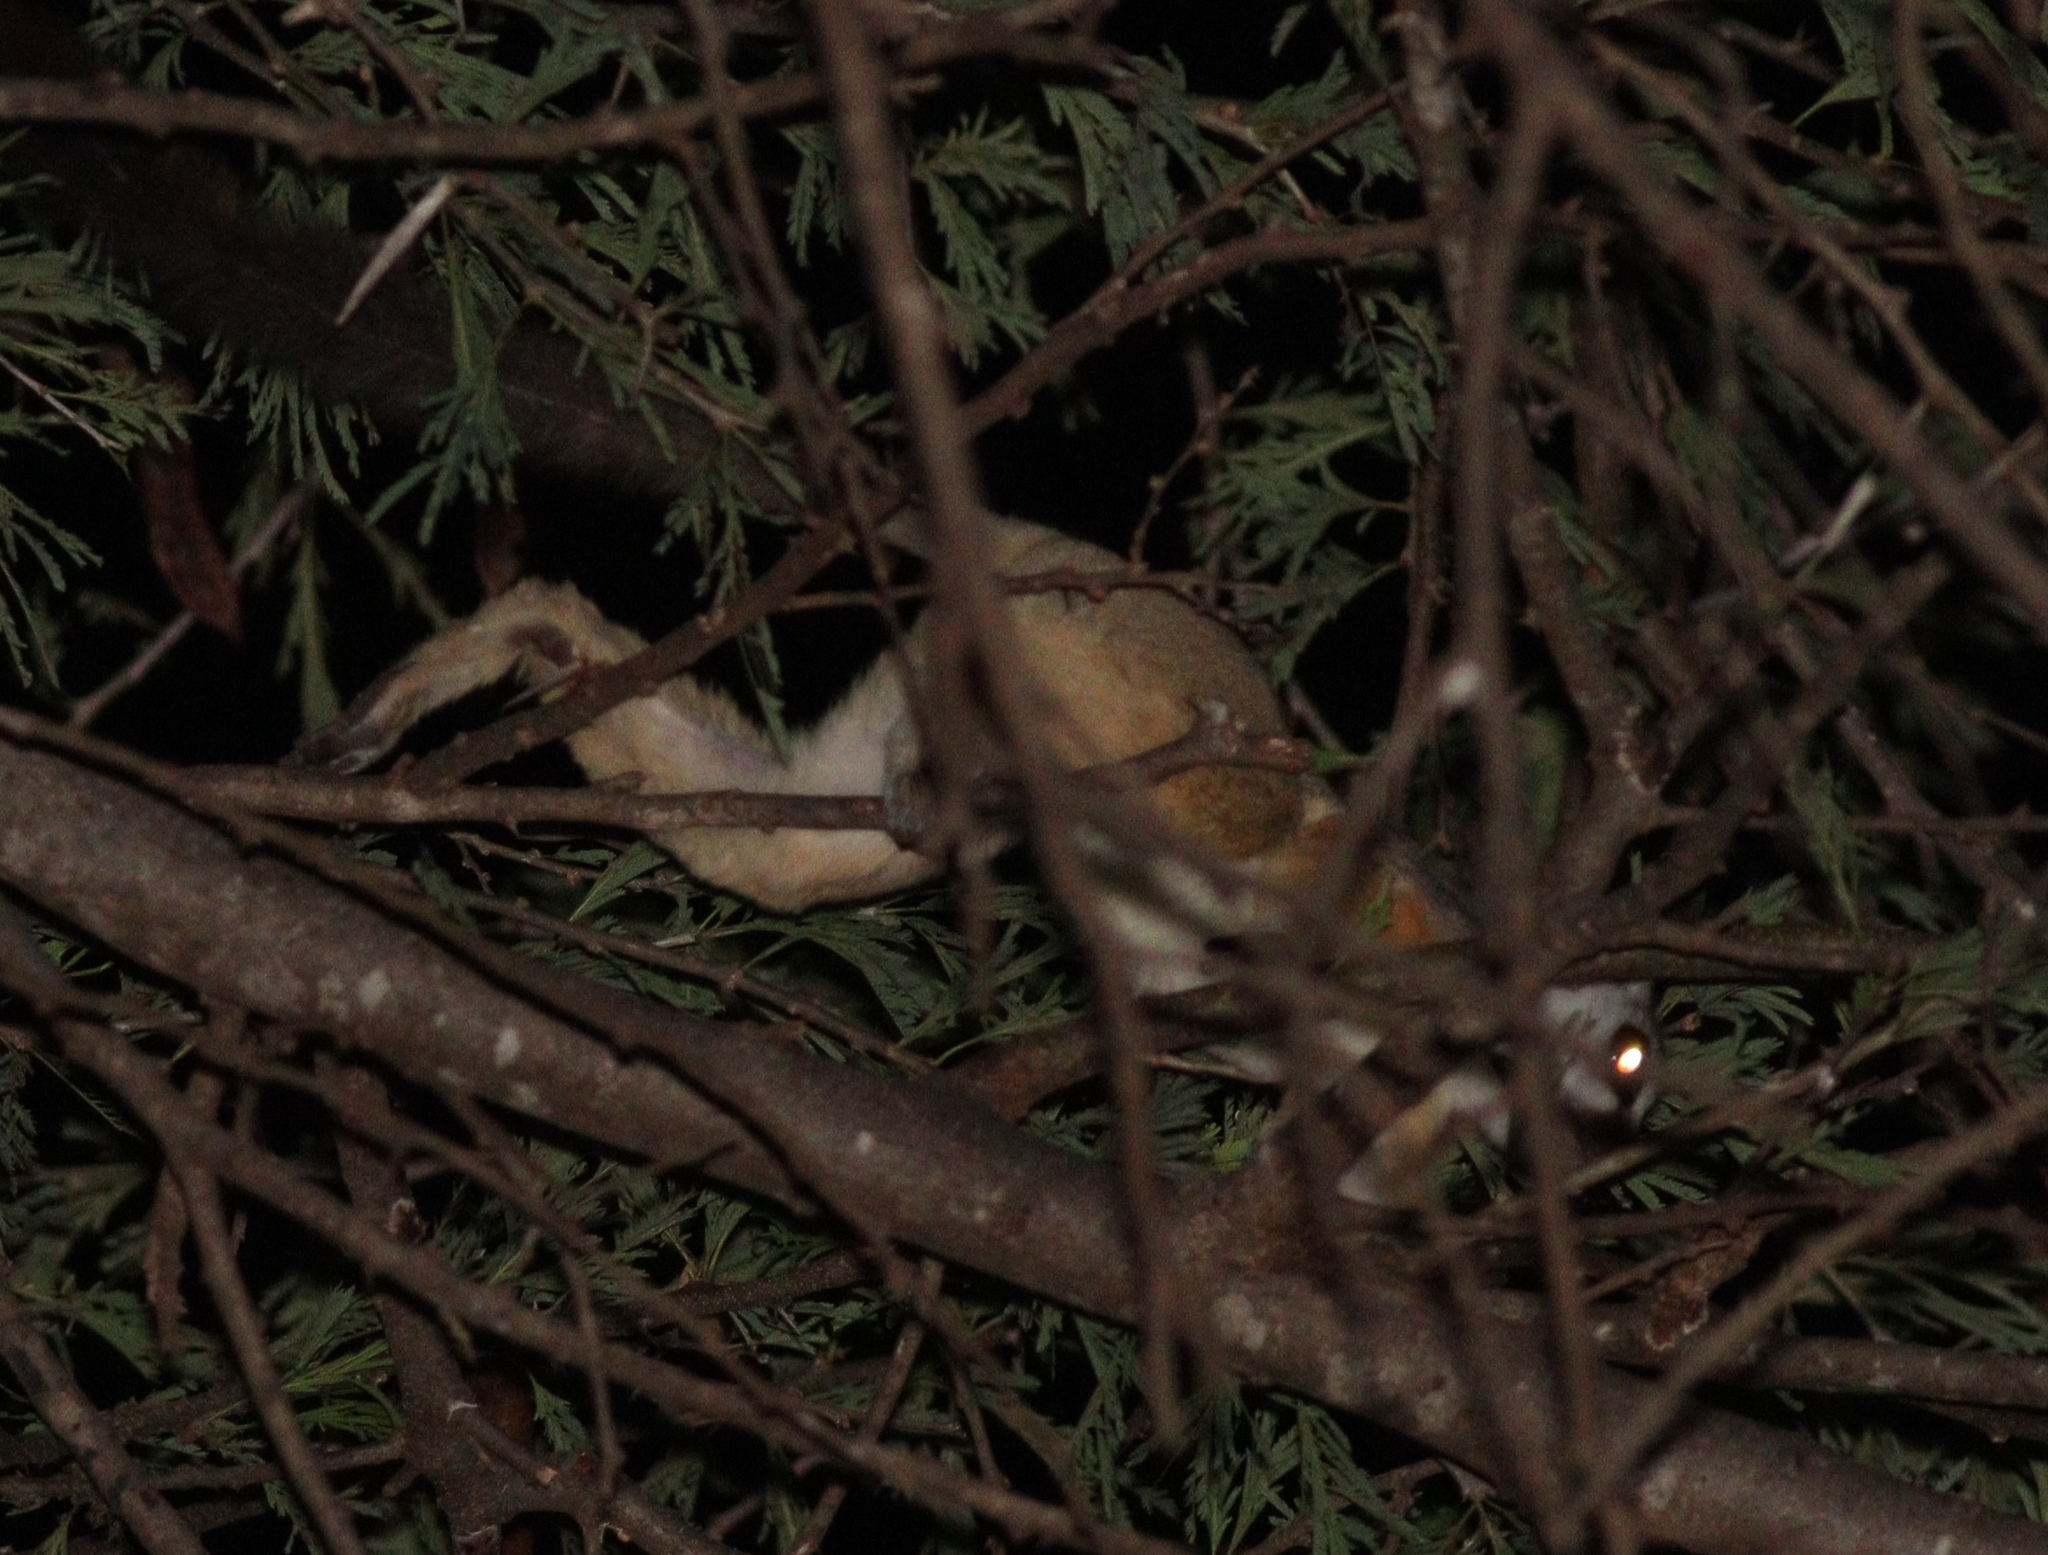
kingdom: Animalia
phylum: Chordata
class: Mammalia
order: Primates
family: Galagidae
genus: Galago
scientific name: Galago gallarum
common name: Somali bushbaby
